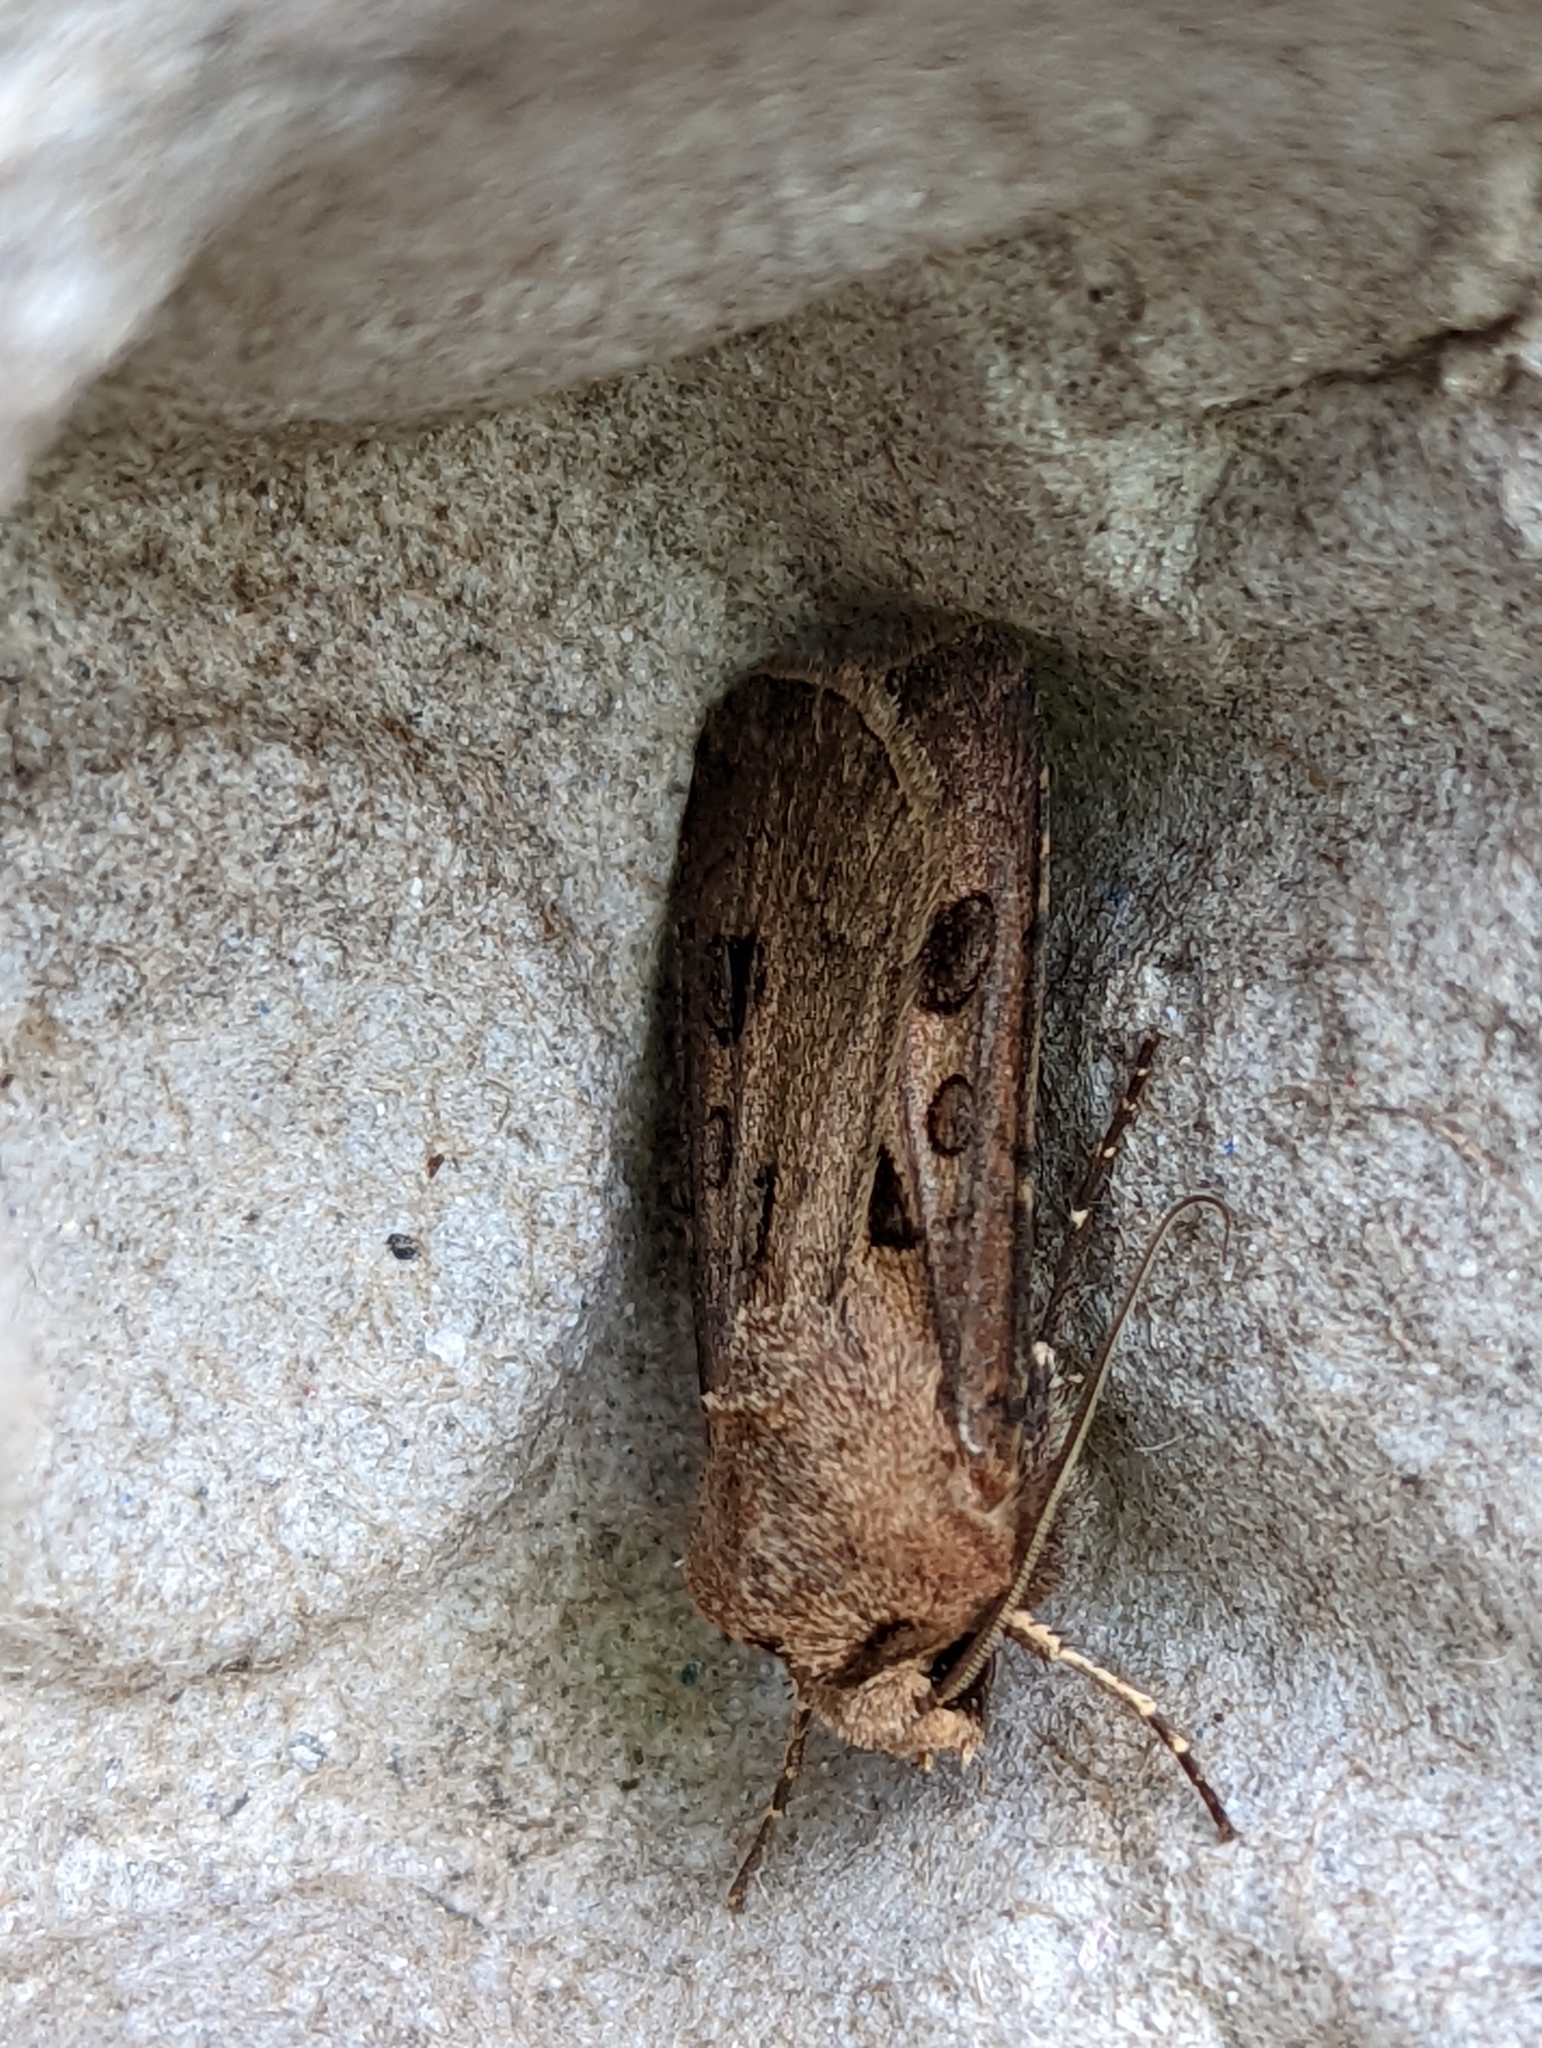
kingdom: Animalia
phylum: Arthropoda
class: Insecta
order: Lepidoptera
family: Noctuidae
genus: Agrotis
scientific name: Agrotis exclamationis
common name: Heart and dart
